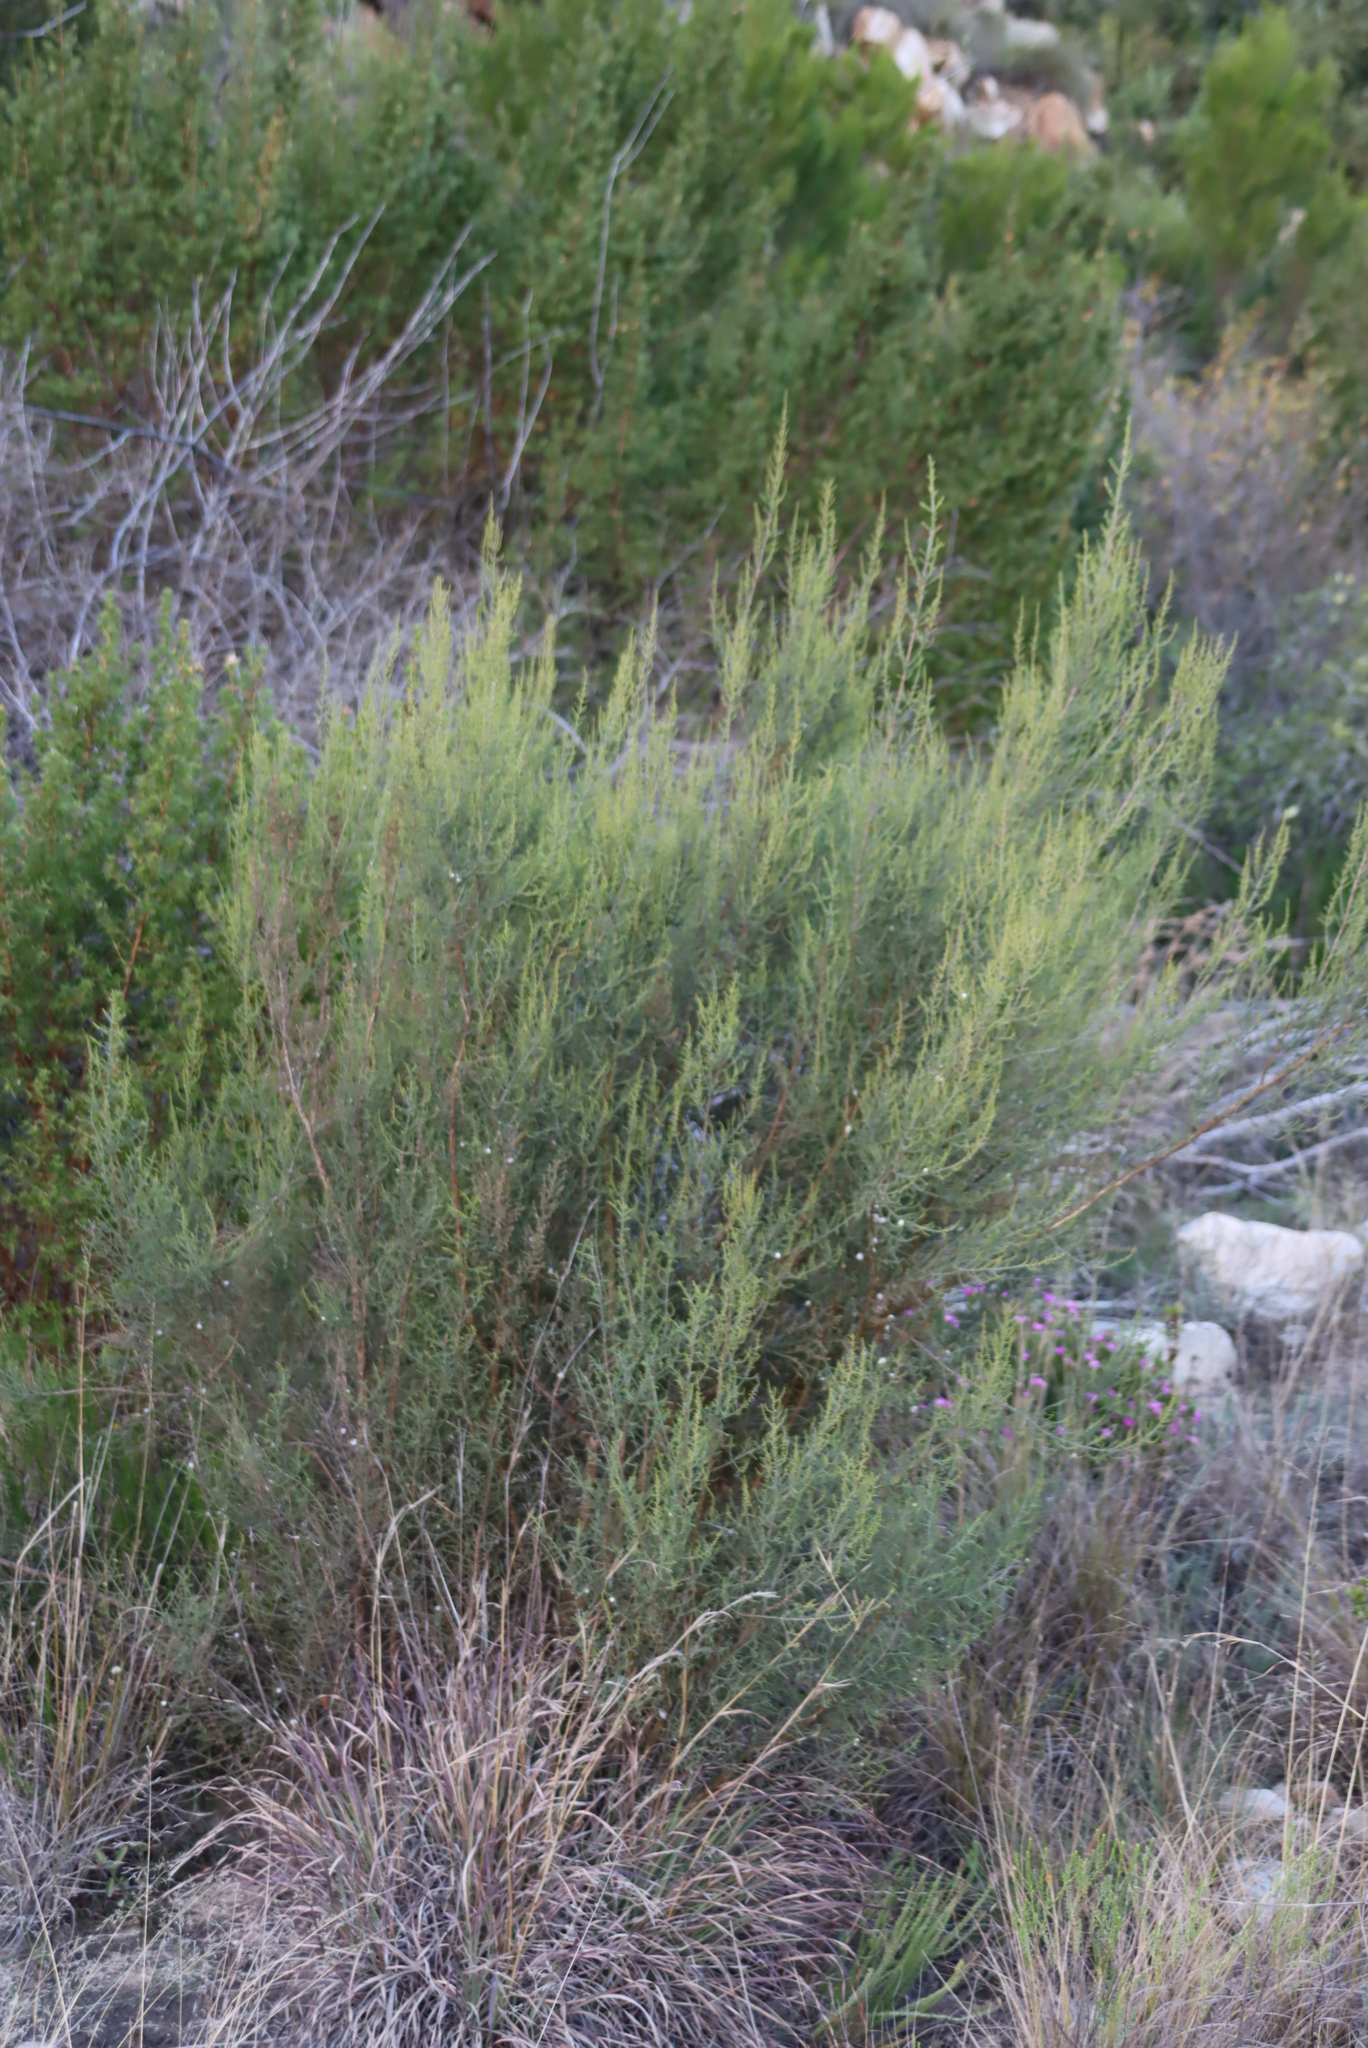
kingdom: Plantae
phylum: Tracheophyta
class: Magnoliopsida
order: Asterales
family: Asteraceae
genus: Dicerothamnus
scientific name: Dicerothamnus rhinocerotis
